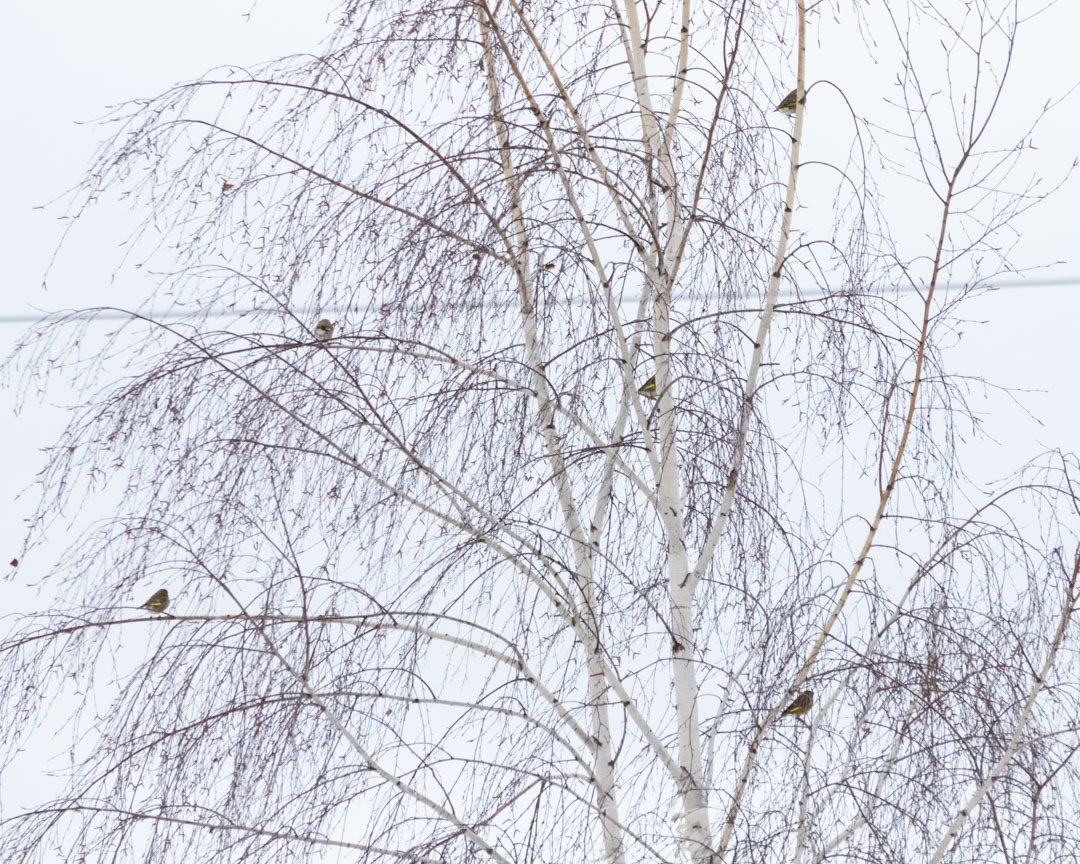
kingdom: Plantae
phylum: Tracheophyta
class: Liliopsida
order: Poales
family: Poaceae
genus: Chloris
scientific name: Chloris chloris
